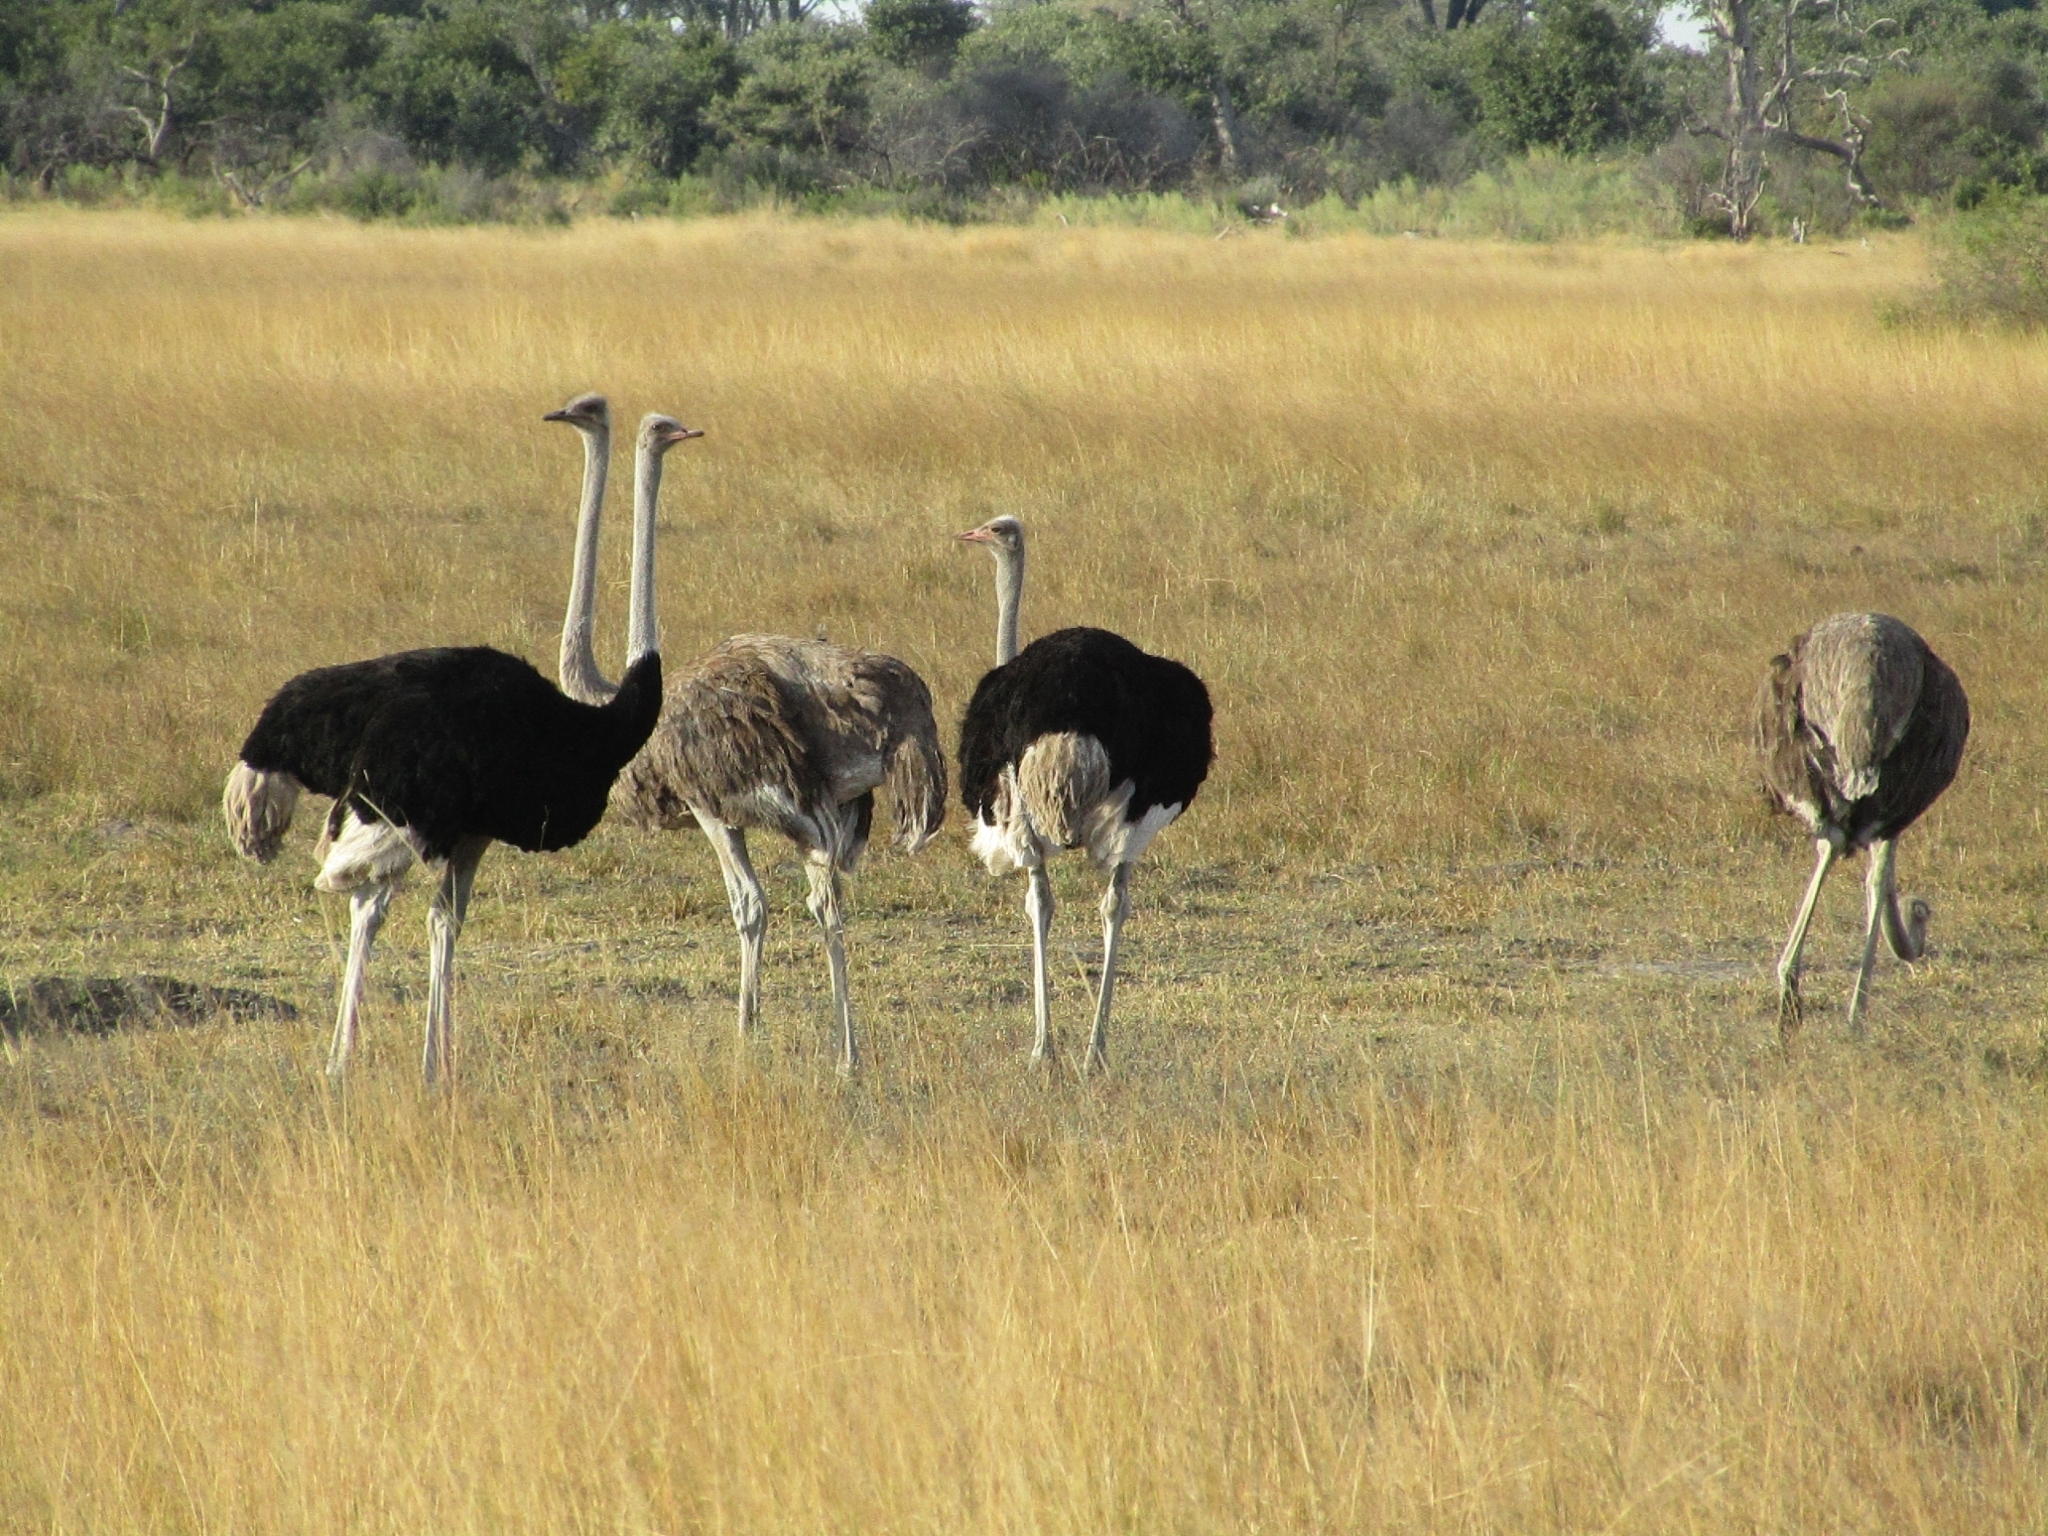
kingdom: Animalia
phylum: Chordata
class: Aves
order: Struthioniformes
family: Struthionidae
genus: Struthio
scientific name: Struthio camelus
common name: Common ostrich
